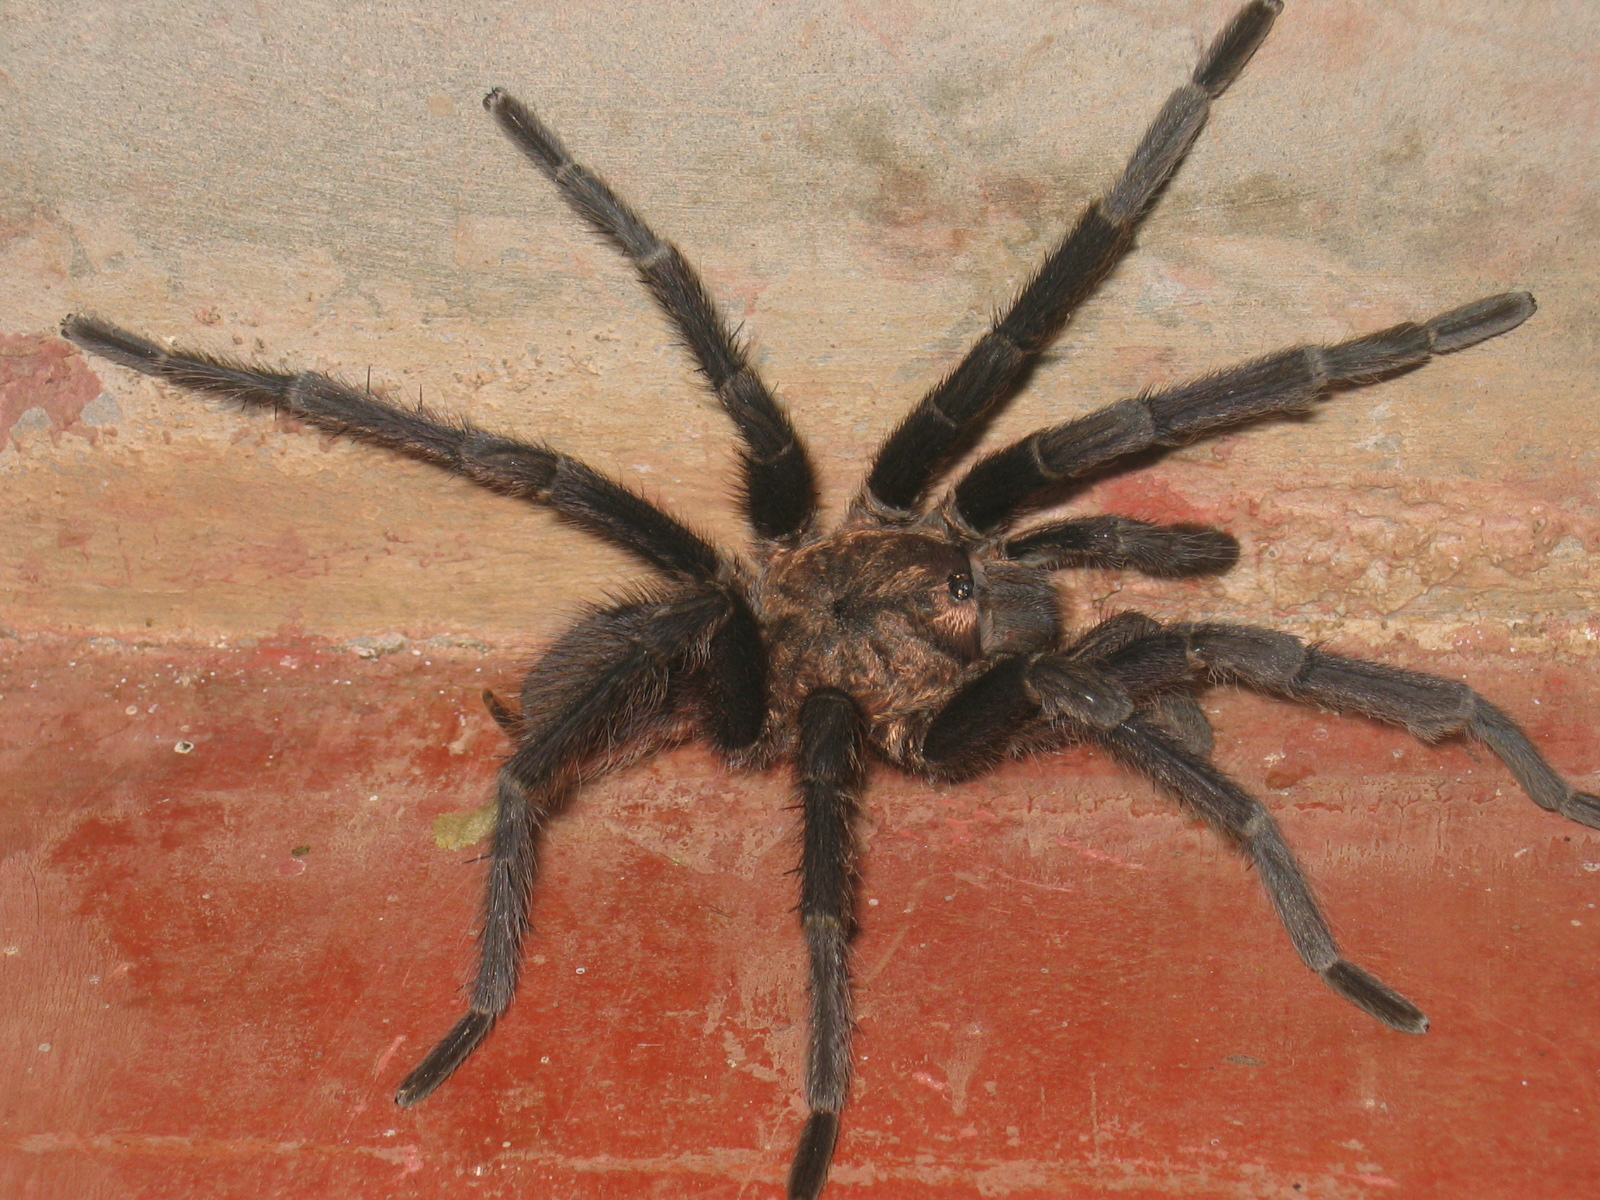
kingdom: Animalia
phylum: Arthropoda
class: Arachnida
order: Araneae
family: Theraphosidae
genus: Aphonopelma
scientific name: Aphonopelma crinirufum
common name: Tarantula spiders
